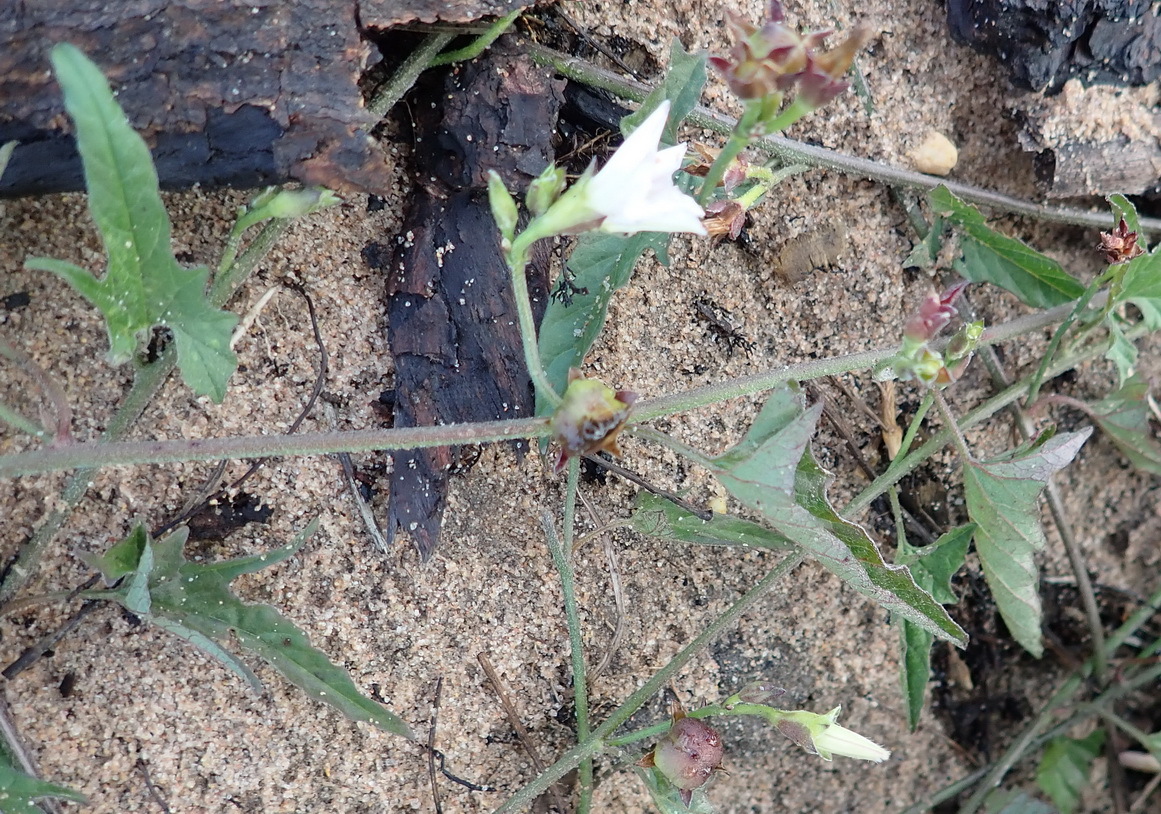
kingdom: Plantae
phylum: Tracheophyta
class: Magnoliopsida
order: Solanales
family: Convolvulaceae
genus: Convolvulus
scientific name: Convolvulus sagittatus
